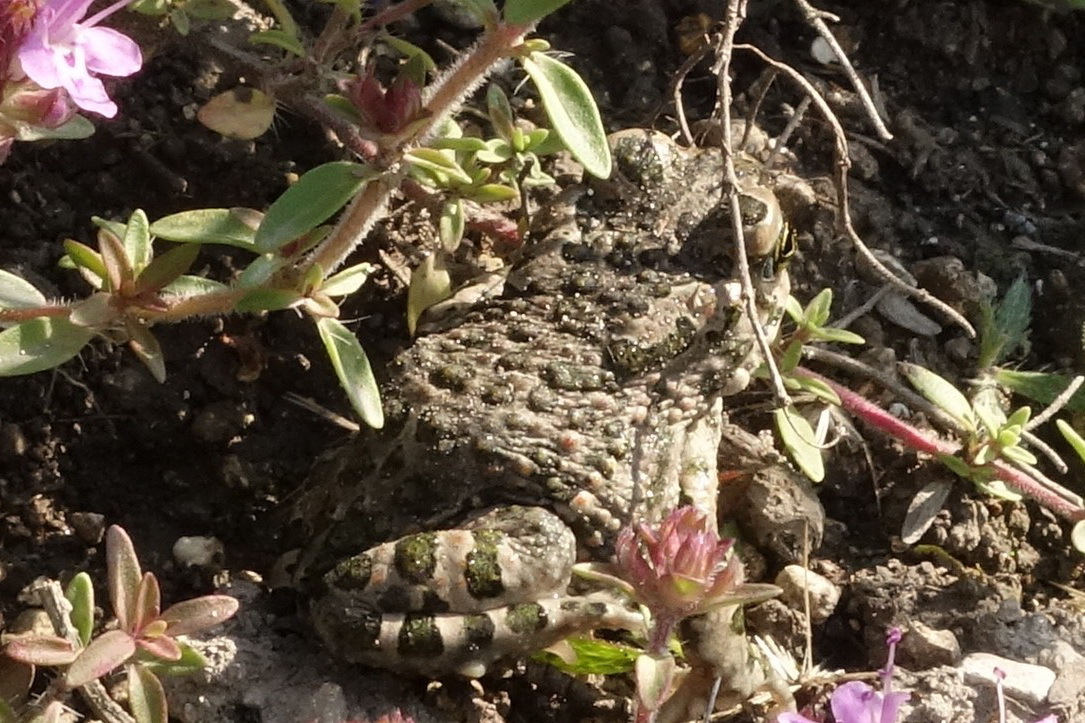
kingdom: Animalia
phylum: Chordata
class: Amphibia
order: Anura
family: Bufonidae
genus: Bufotes
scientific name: Bufotes viridis
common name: European green toad
